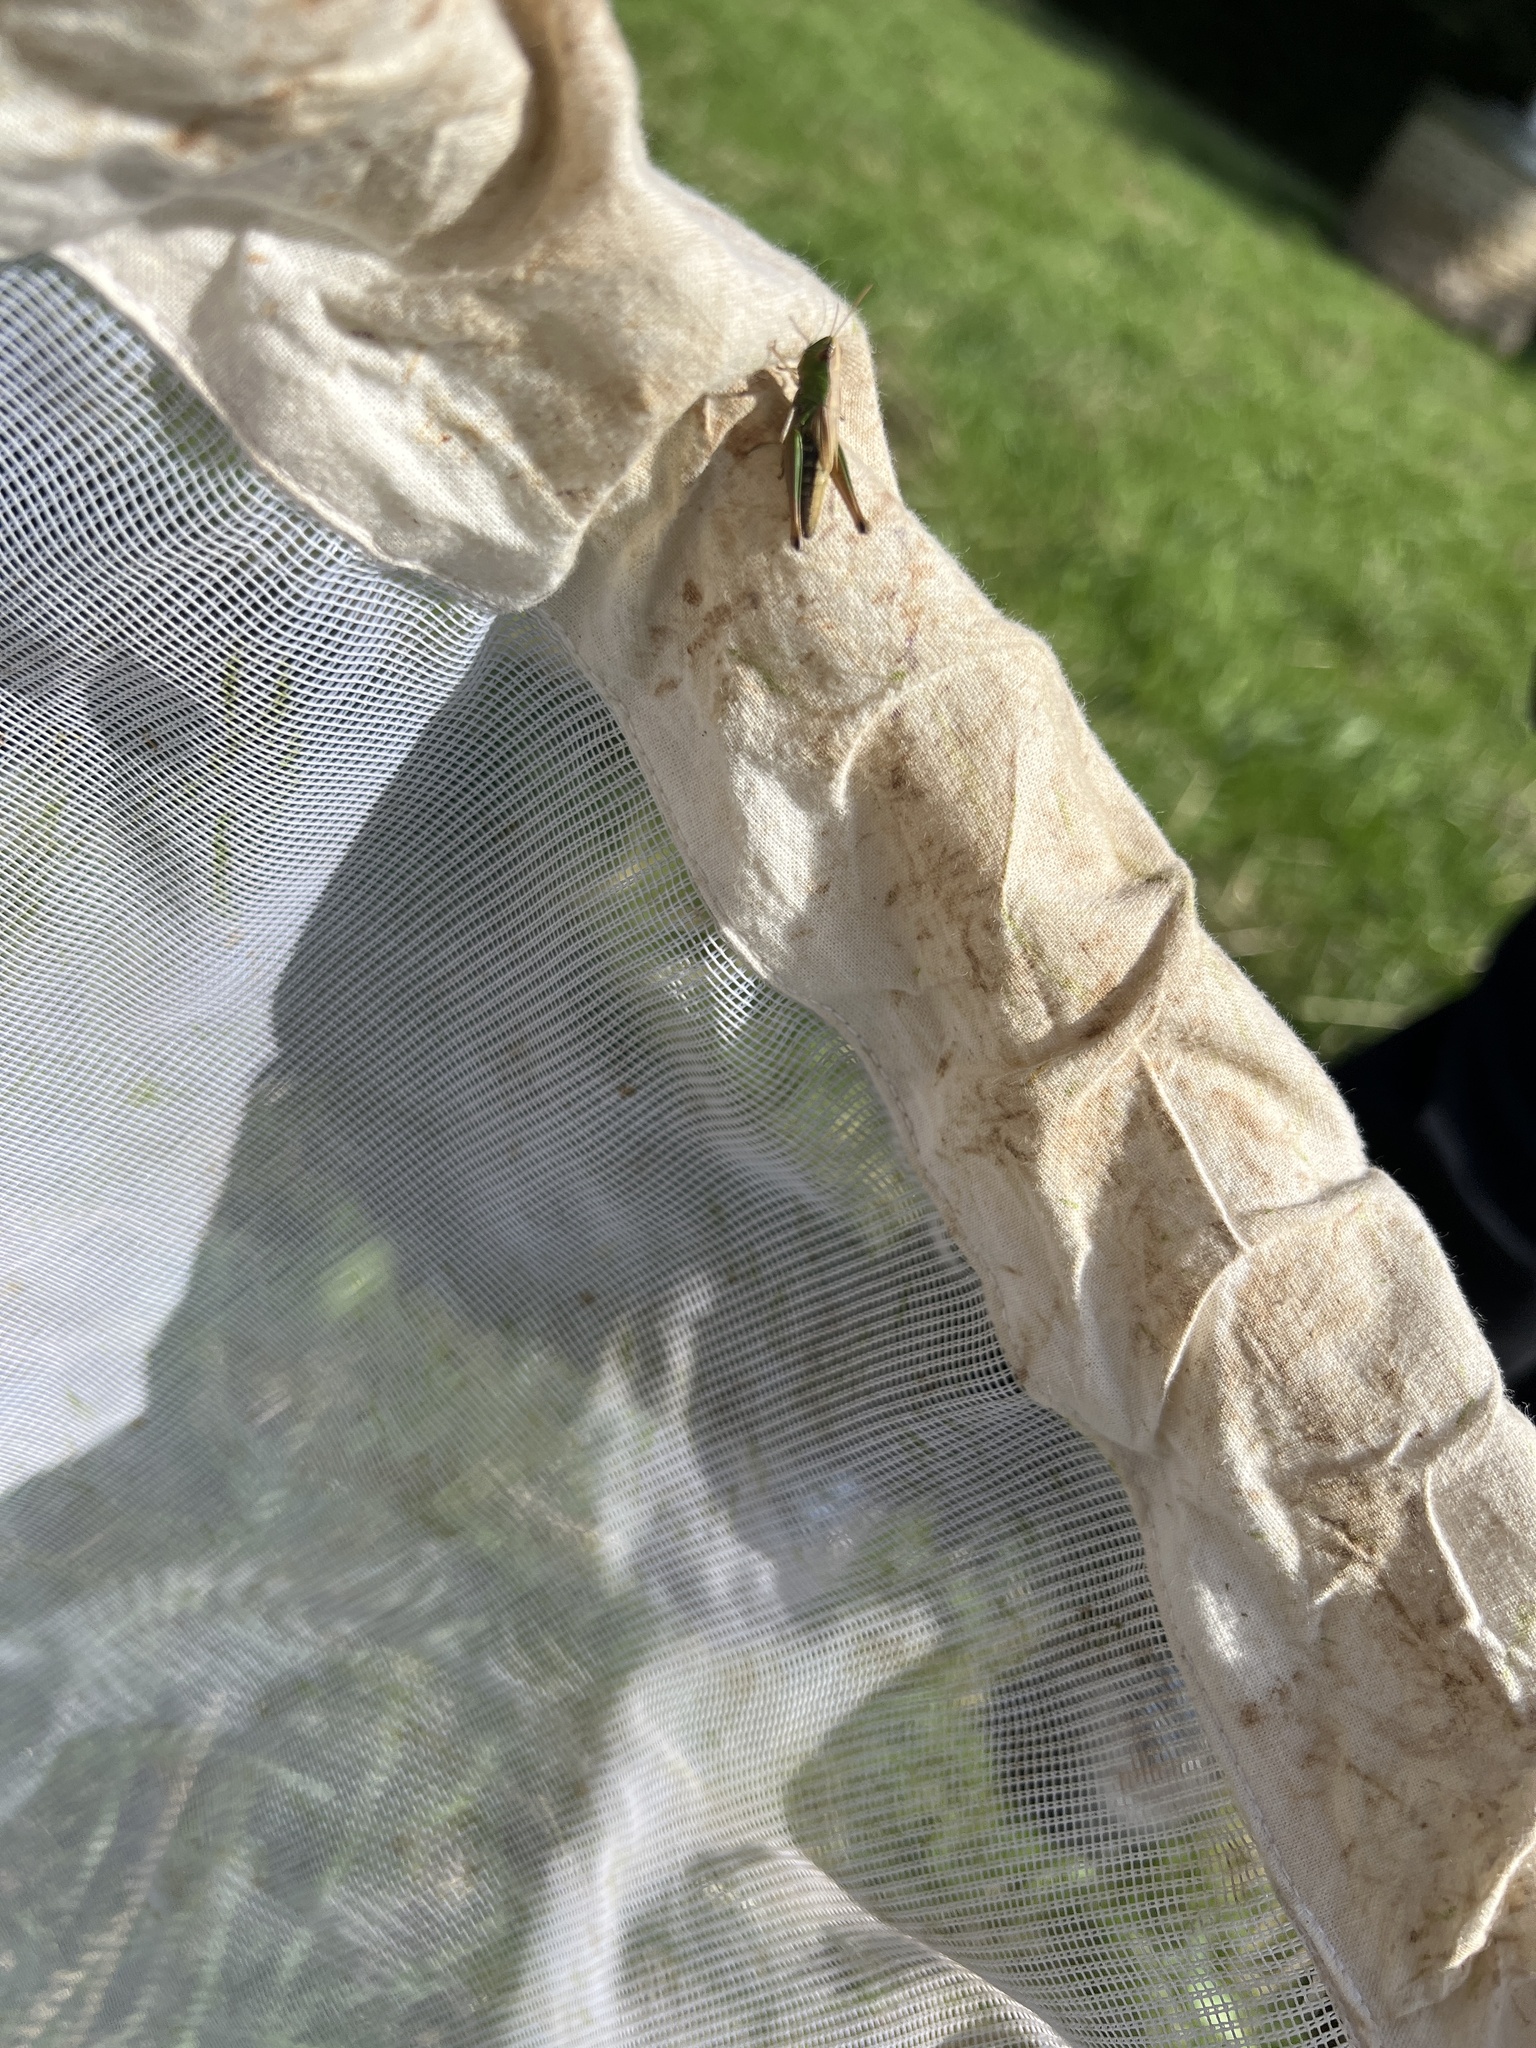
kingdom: Animalia
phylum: Arthropoda
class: Insecta
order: Orthoptera
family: Acrididae
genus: Pseudochorthippus
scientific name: Pseudochorthippus parallelus
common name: Meadow grasshopper
